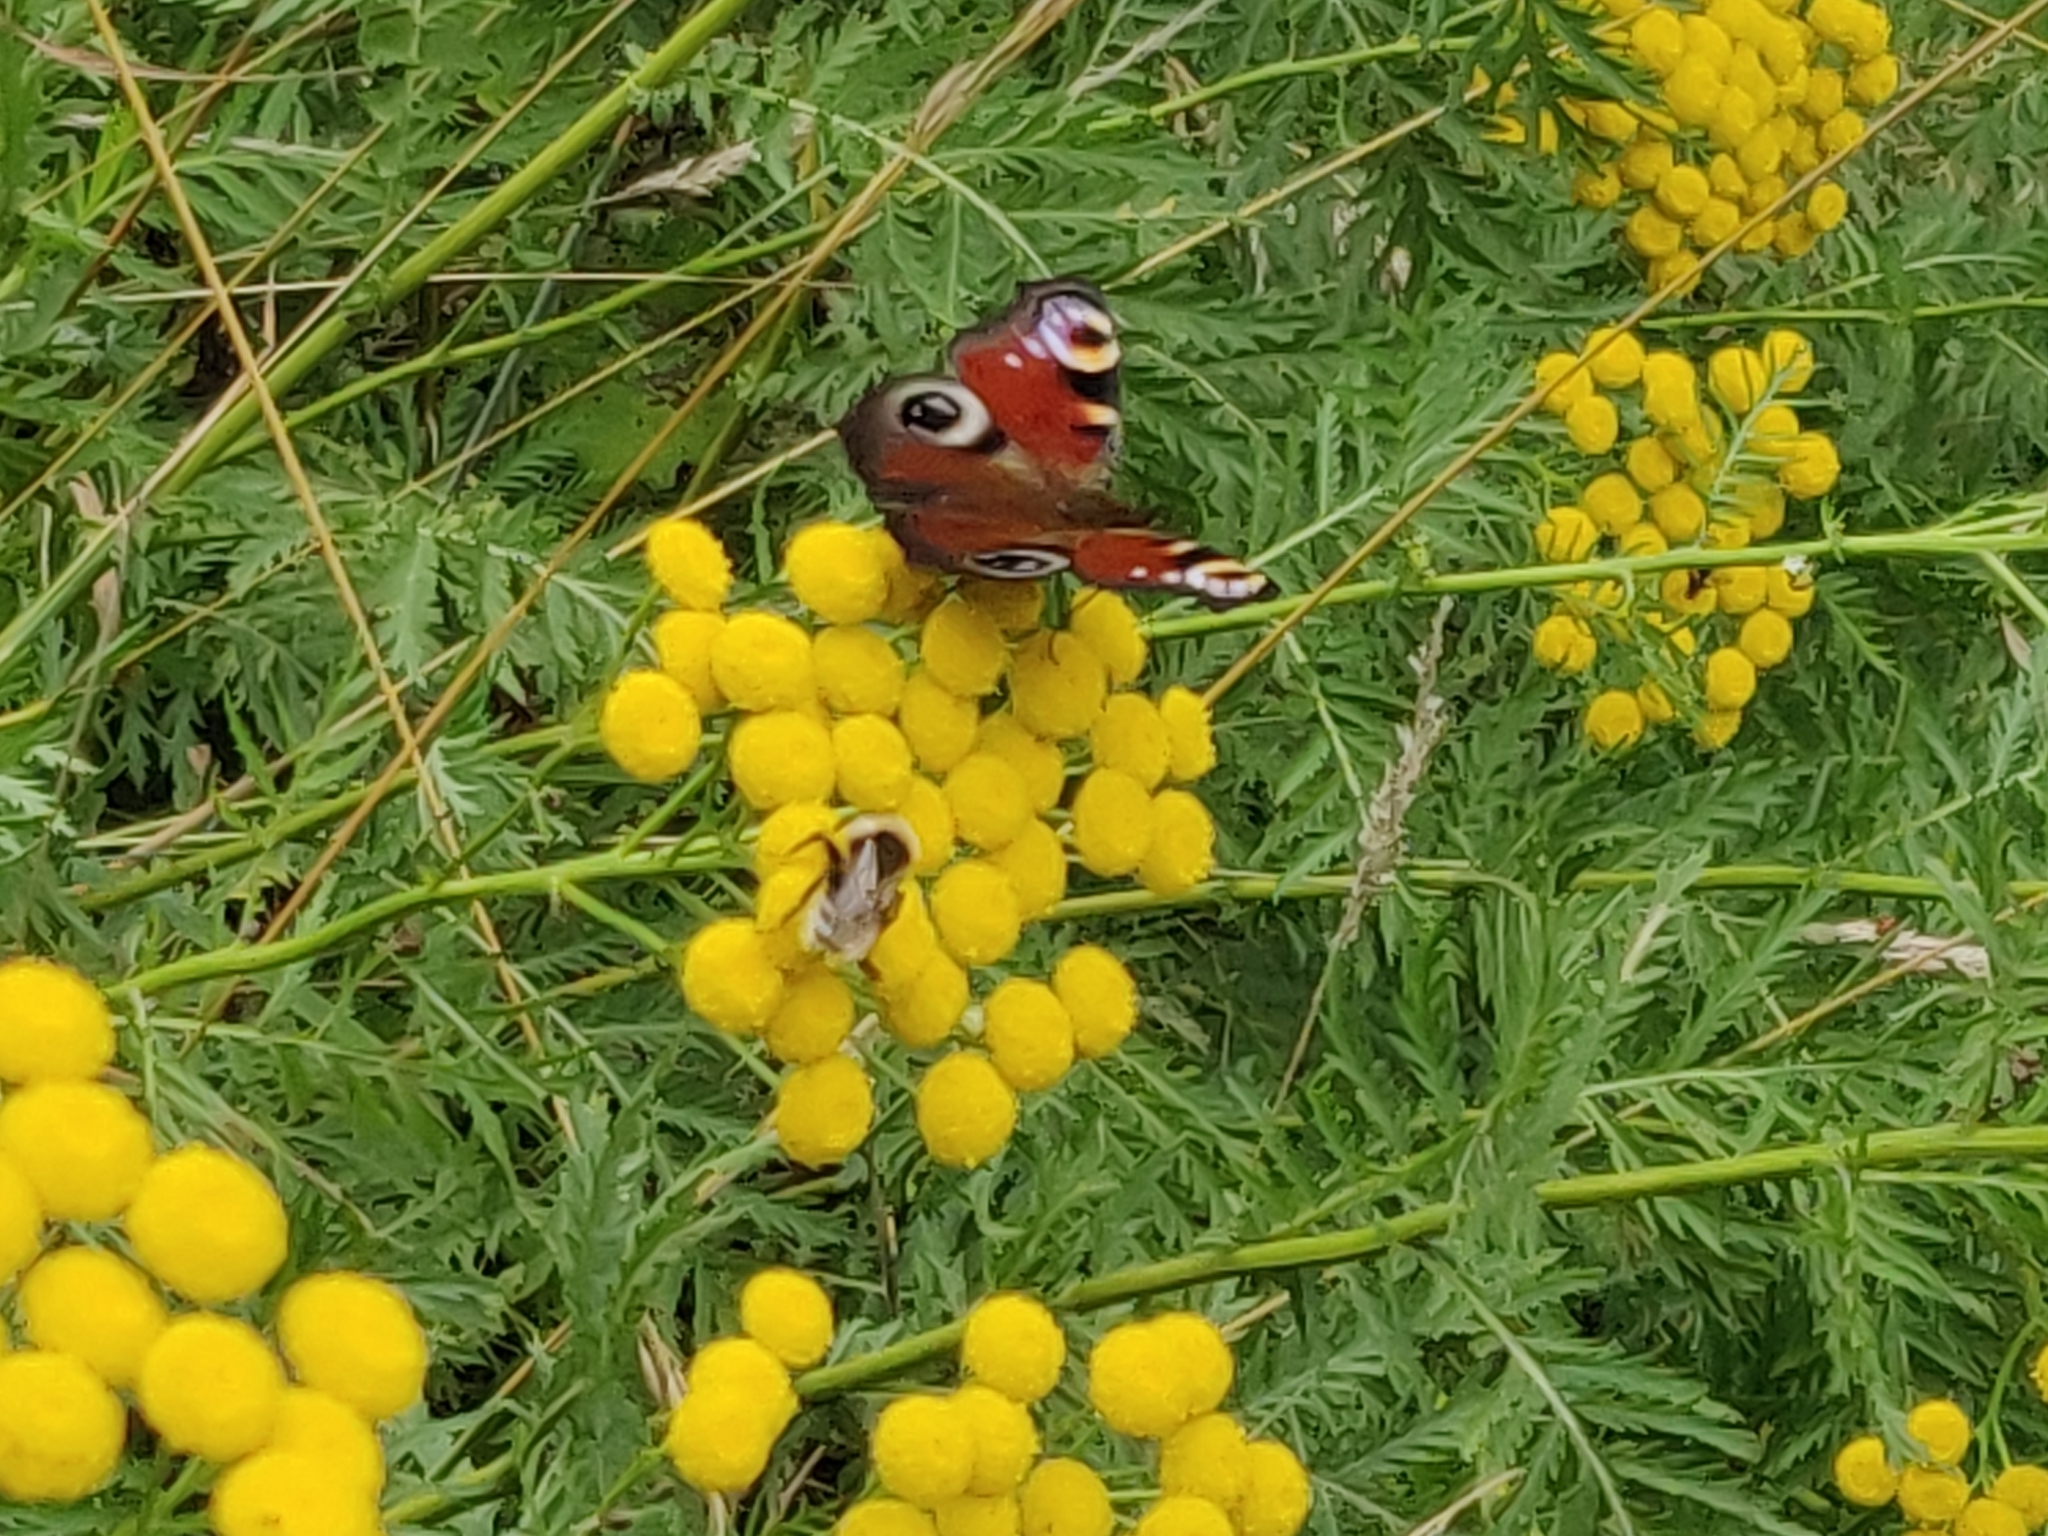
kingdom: Plantae
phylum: Tracheophyta
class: Magnoliopsida
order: Asterales
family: Asteraceae
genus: Tanacetum
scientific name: Tanacetum vulgare
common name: Common tansy
